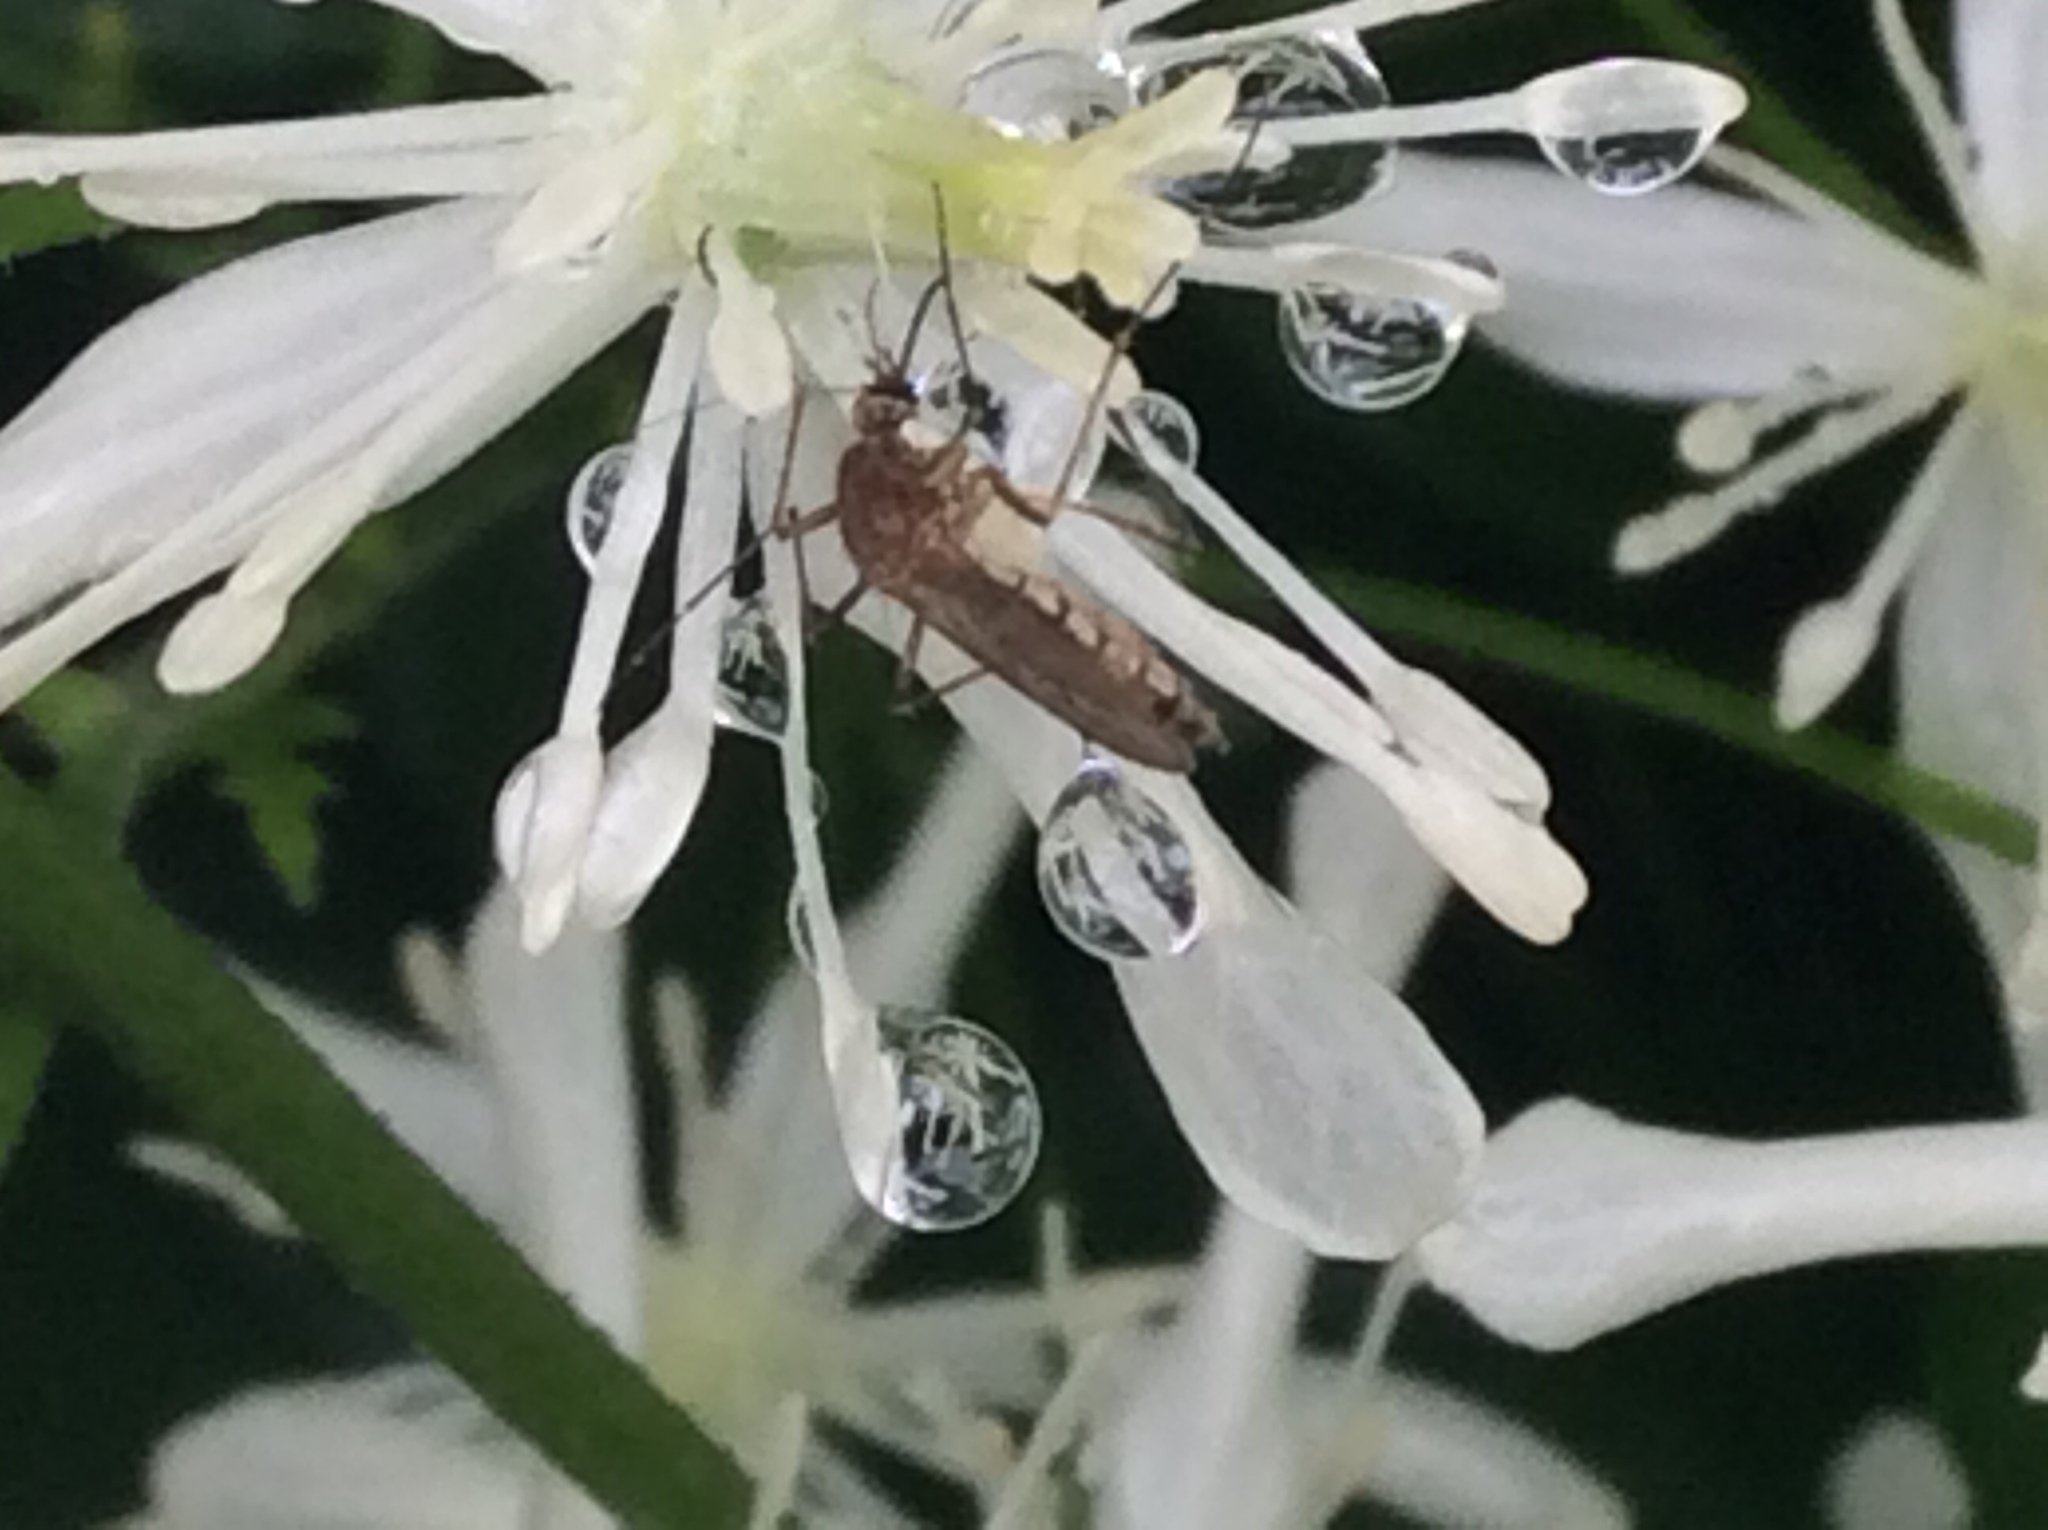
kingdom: Animalia
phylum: Arthropoda
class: Insecta
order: Diptera
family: Culicidae
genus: Aedes
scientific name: Aedes vexans
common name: Inland floodwater mosquito
